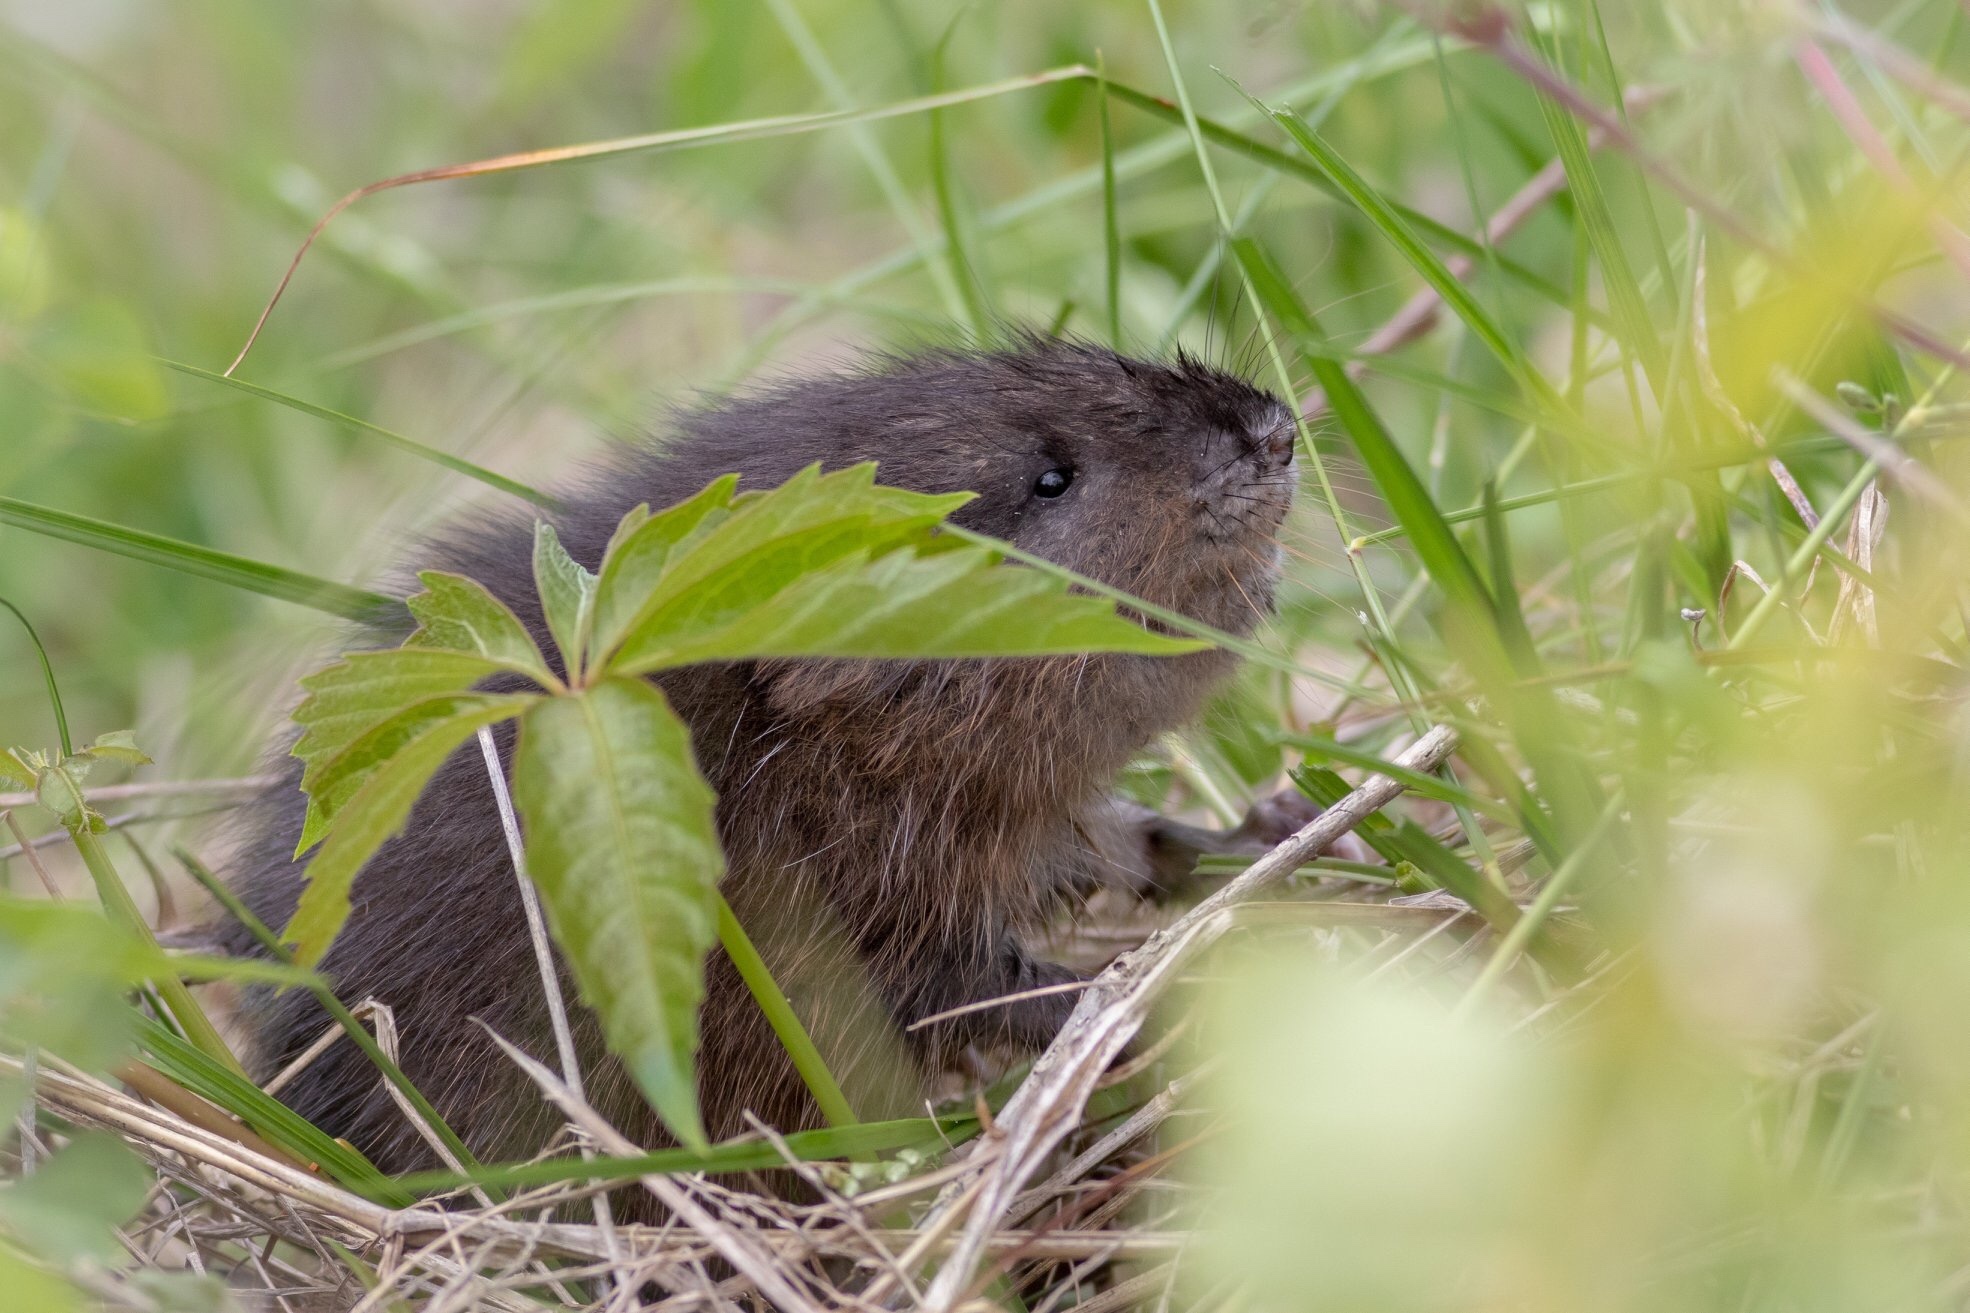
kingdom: Animalia
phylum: Chordata
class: Mammalia
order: Rodentia
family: Cricetidae
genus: Ondatra
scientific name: Ondatra zibethicus
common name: Muskrat
